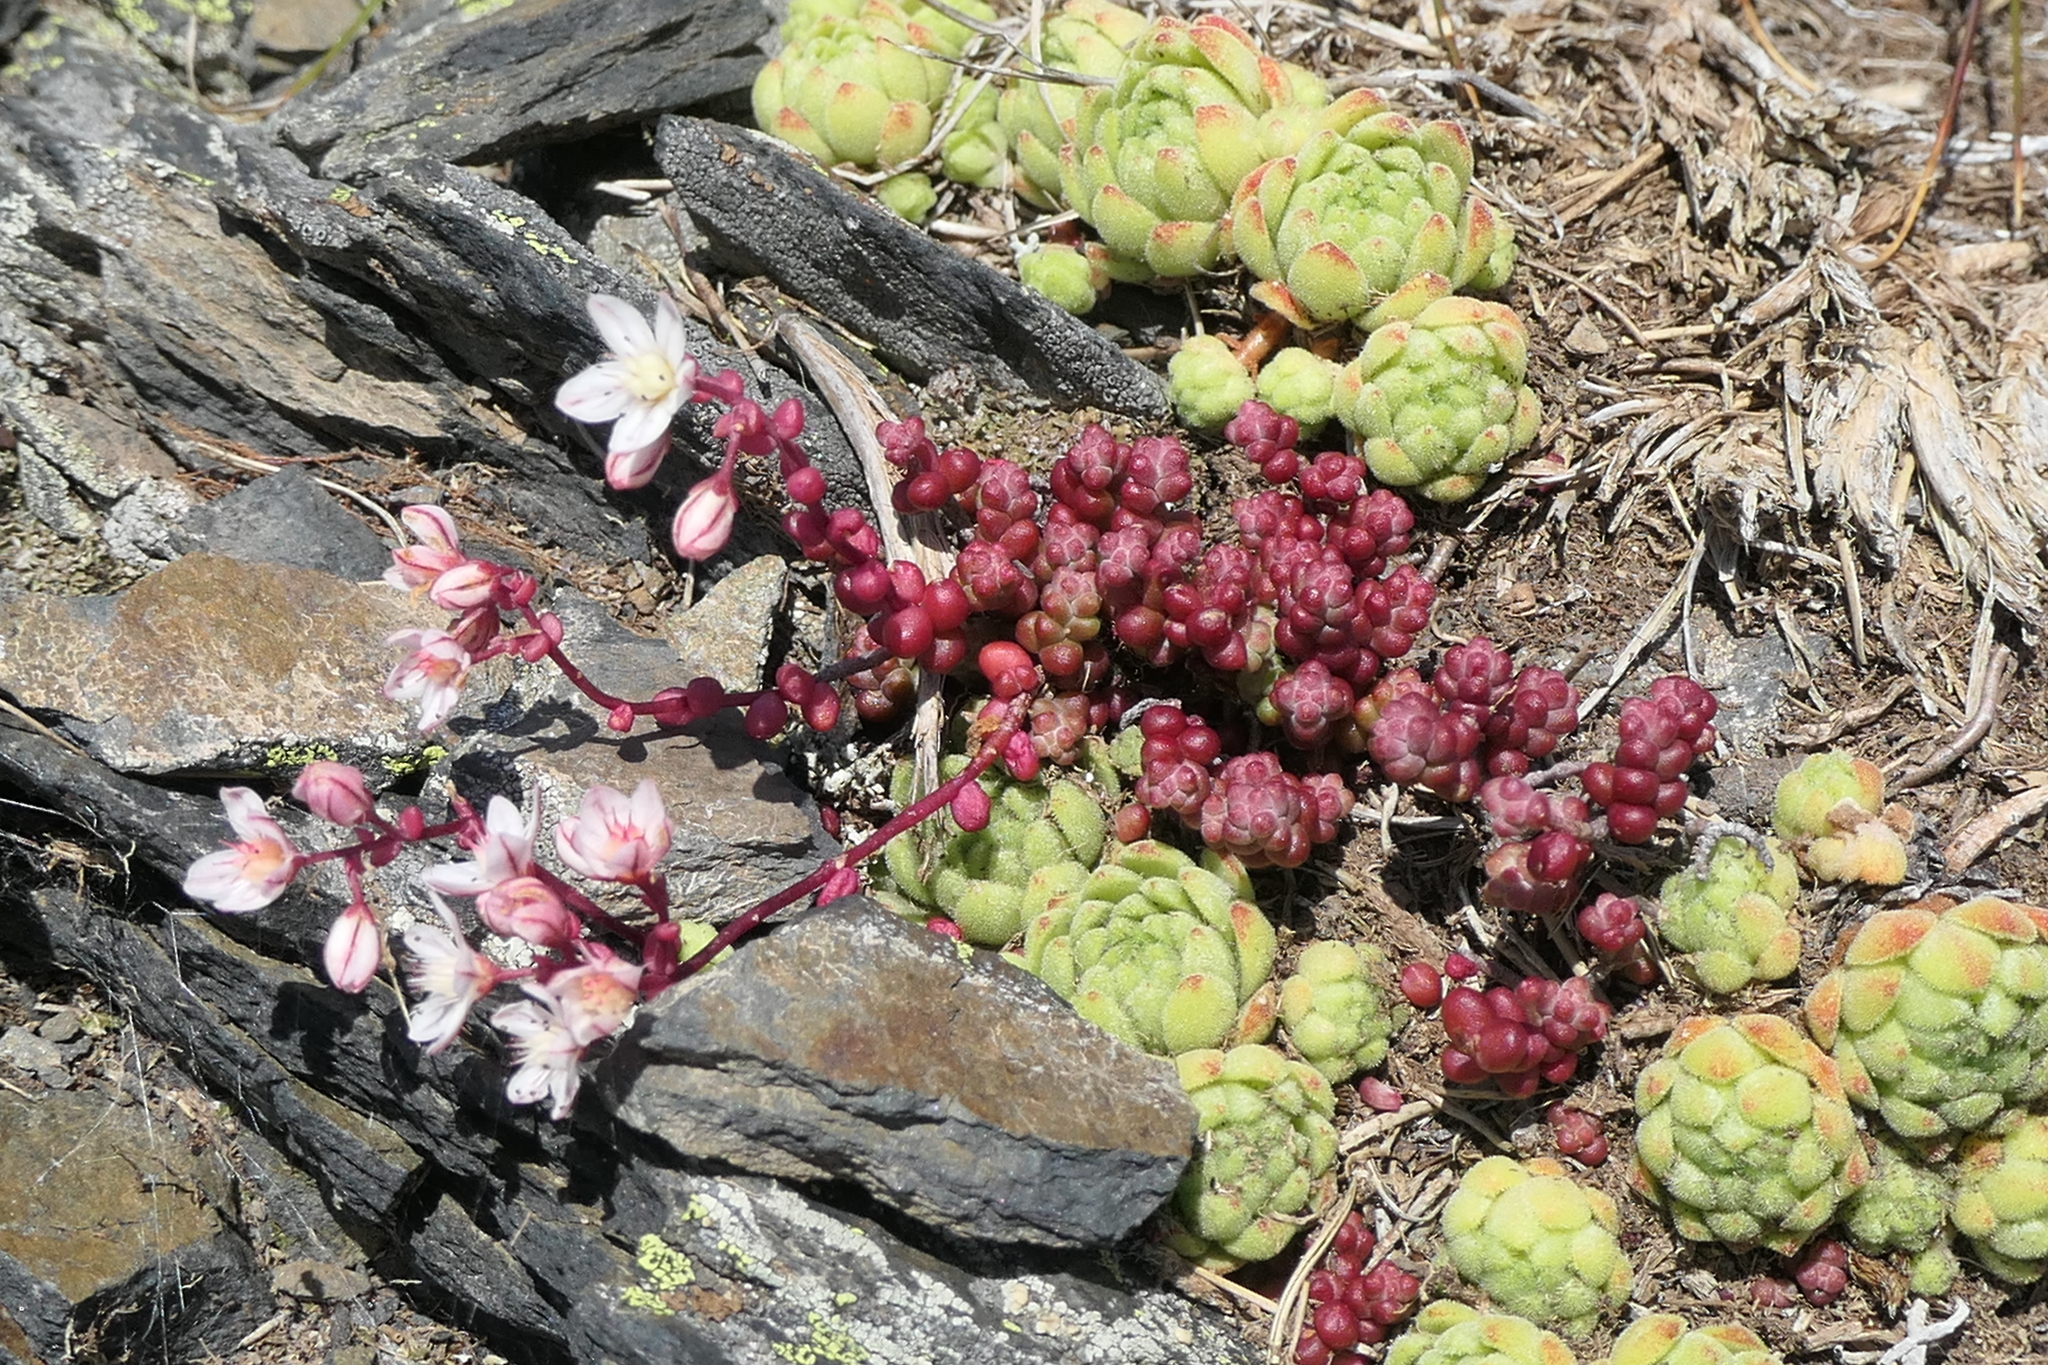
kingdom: Plantae
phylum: Tracheophyta
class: Magnoliopsida
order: Saxifragales
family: Crassulaceae
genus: Sedum
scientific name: Sedum brevifolium
